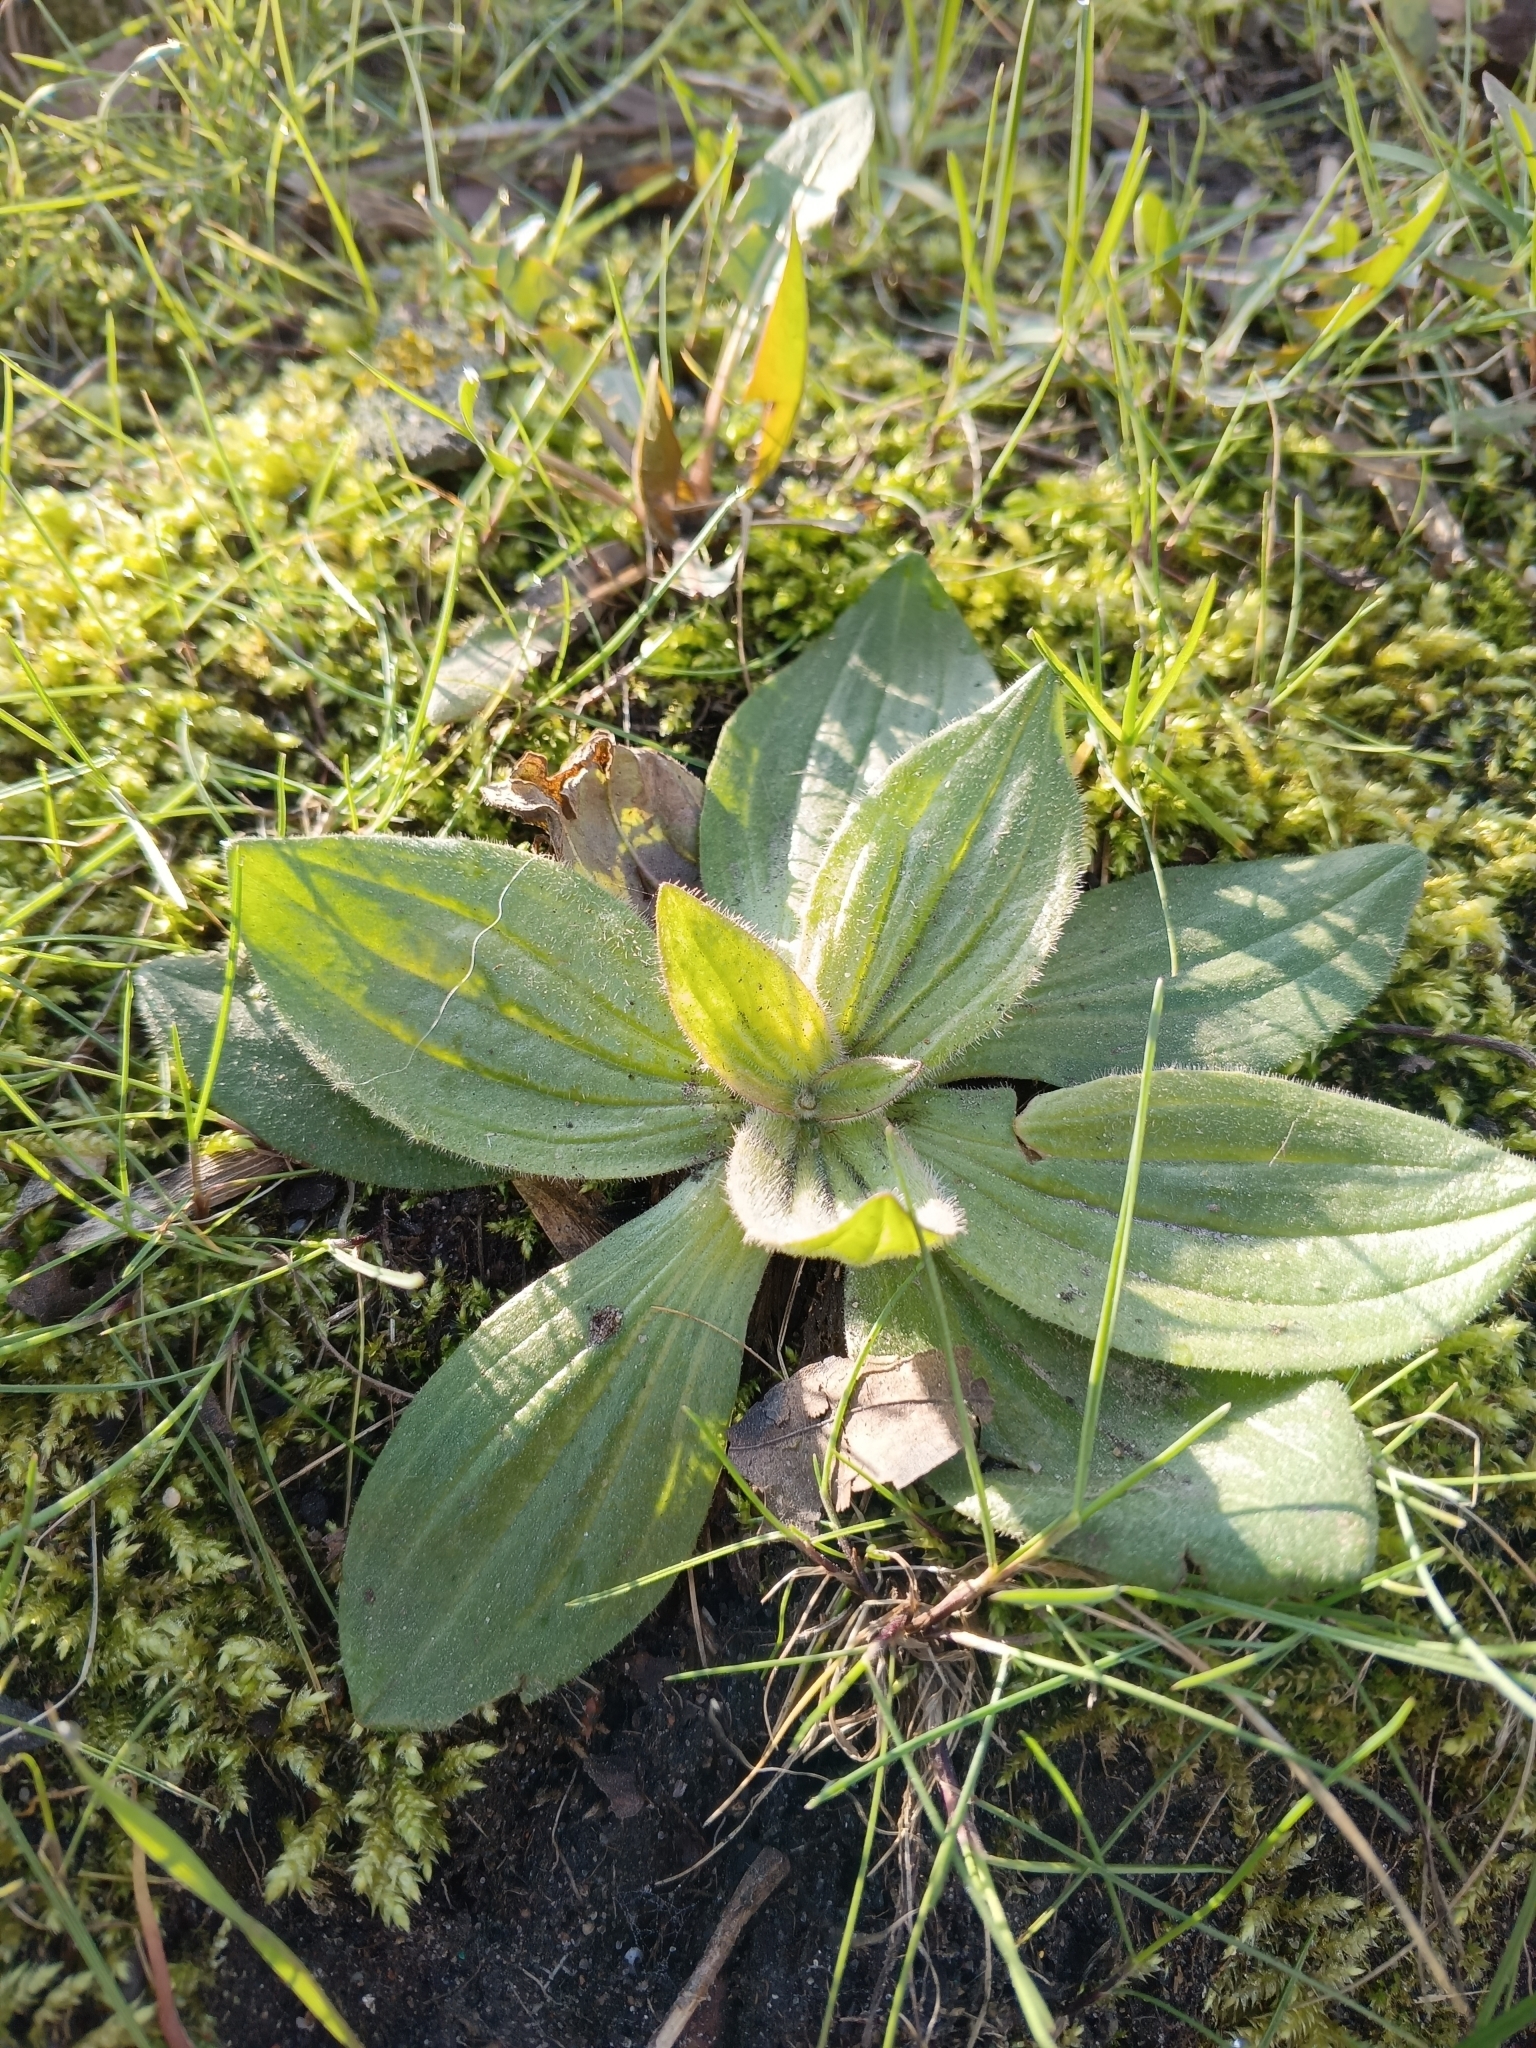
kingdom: Plantae
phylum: Tracheophyta
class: Magnoliopsida
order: Lamiales
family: Plantaginaceae
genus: Plantago
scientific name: Plantago media
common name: Hoary plantain
